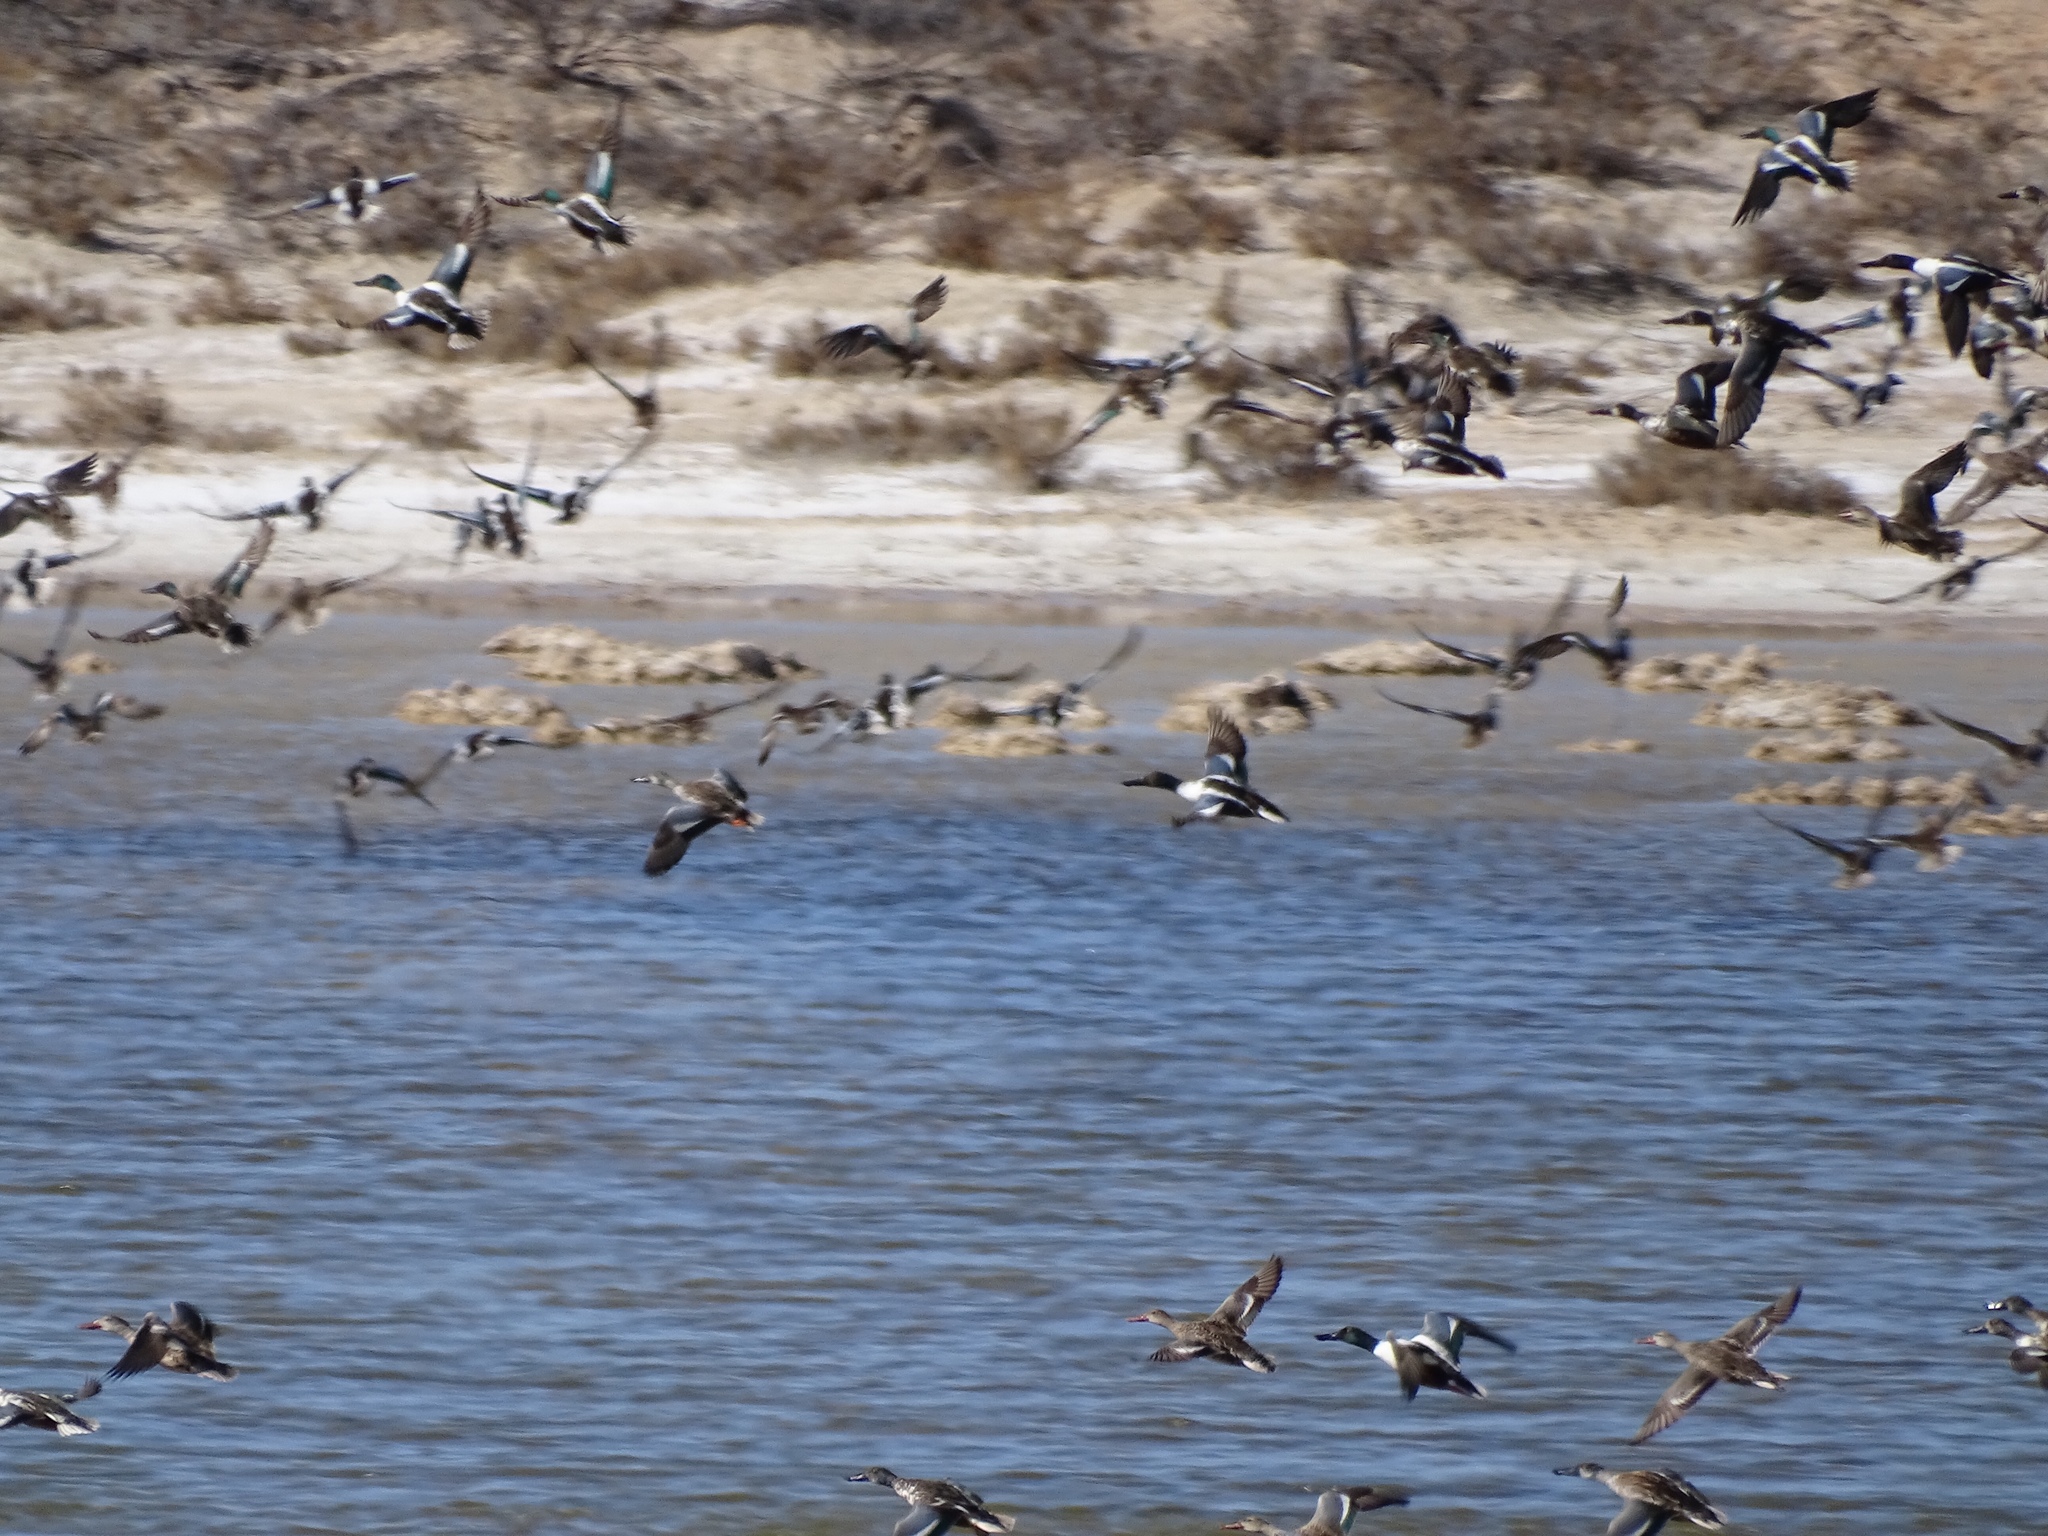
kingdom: Animalia
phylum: Chordata
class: Aves
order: Anseriformes
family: Anatidae
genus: Spatula
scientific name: Spatula clypeata
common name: Northern shoveler
